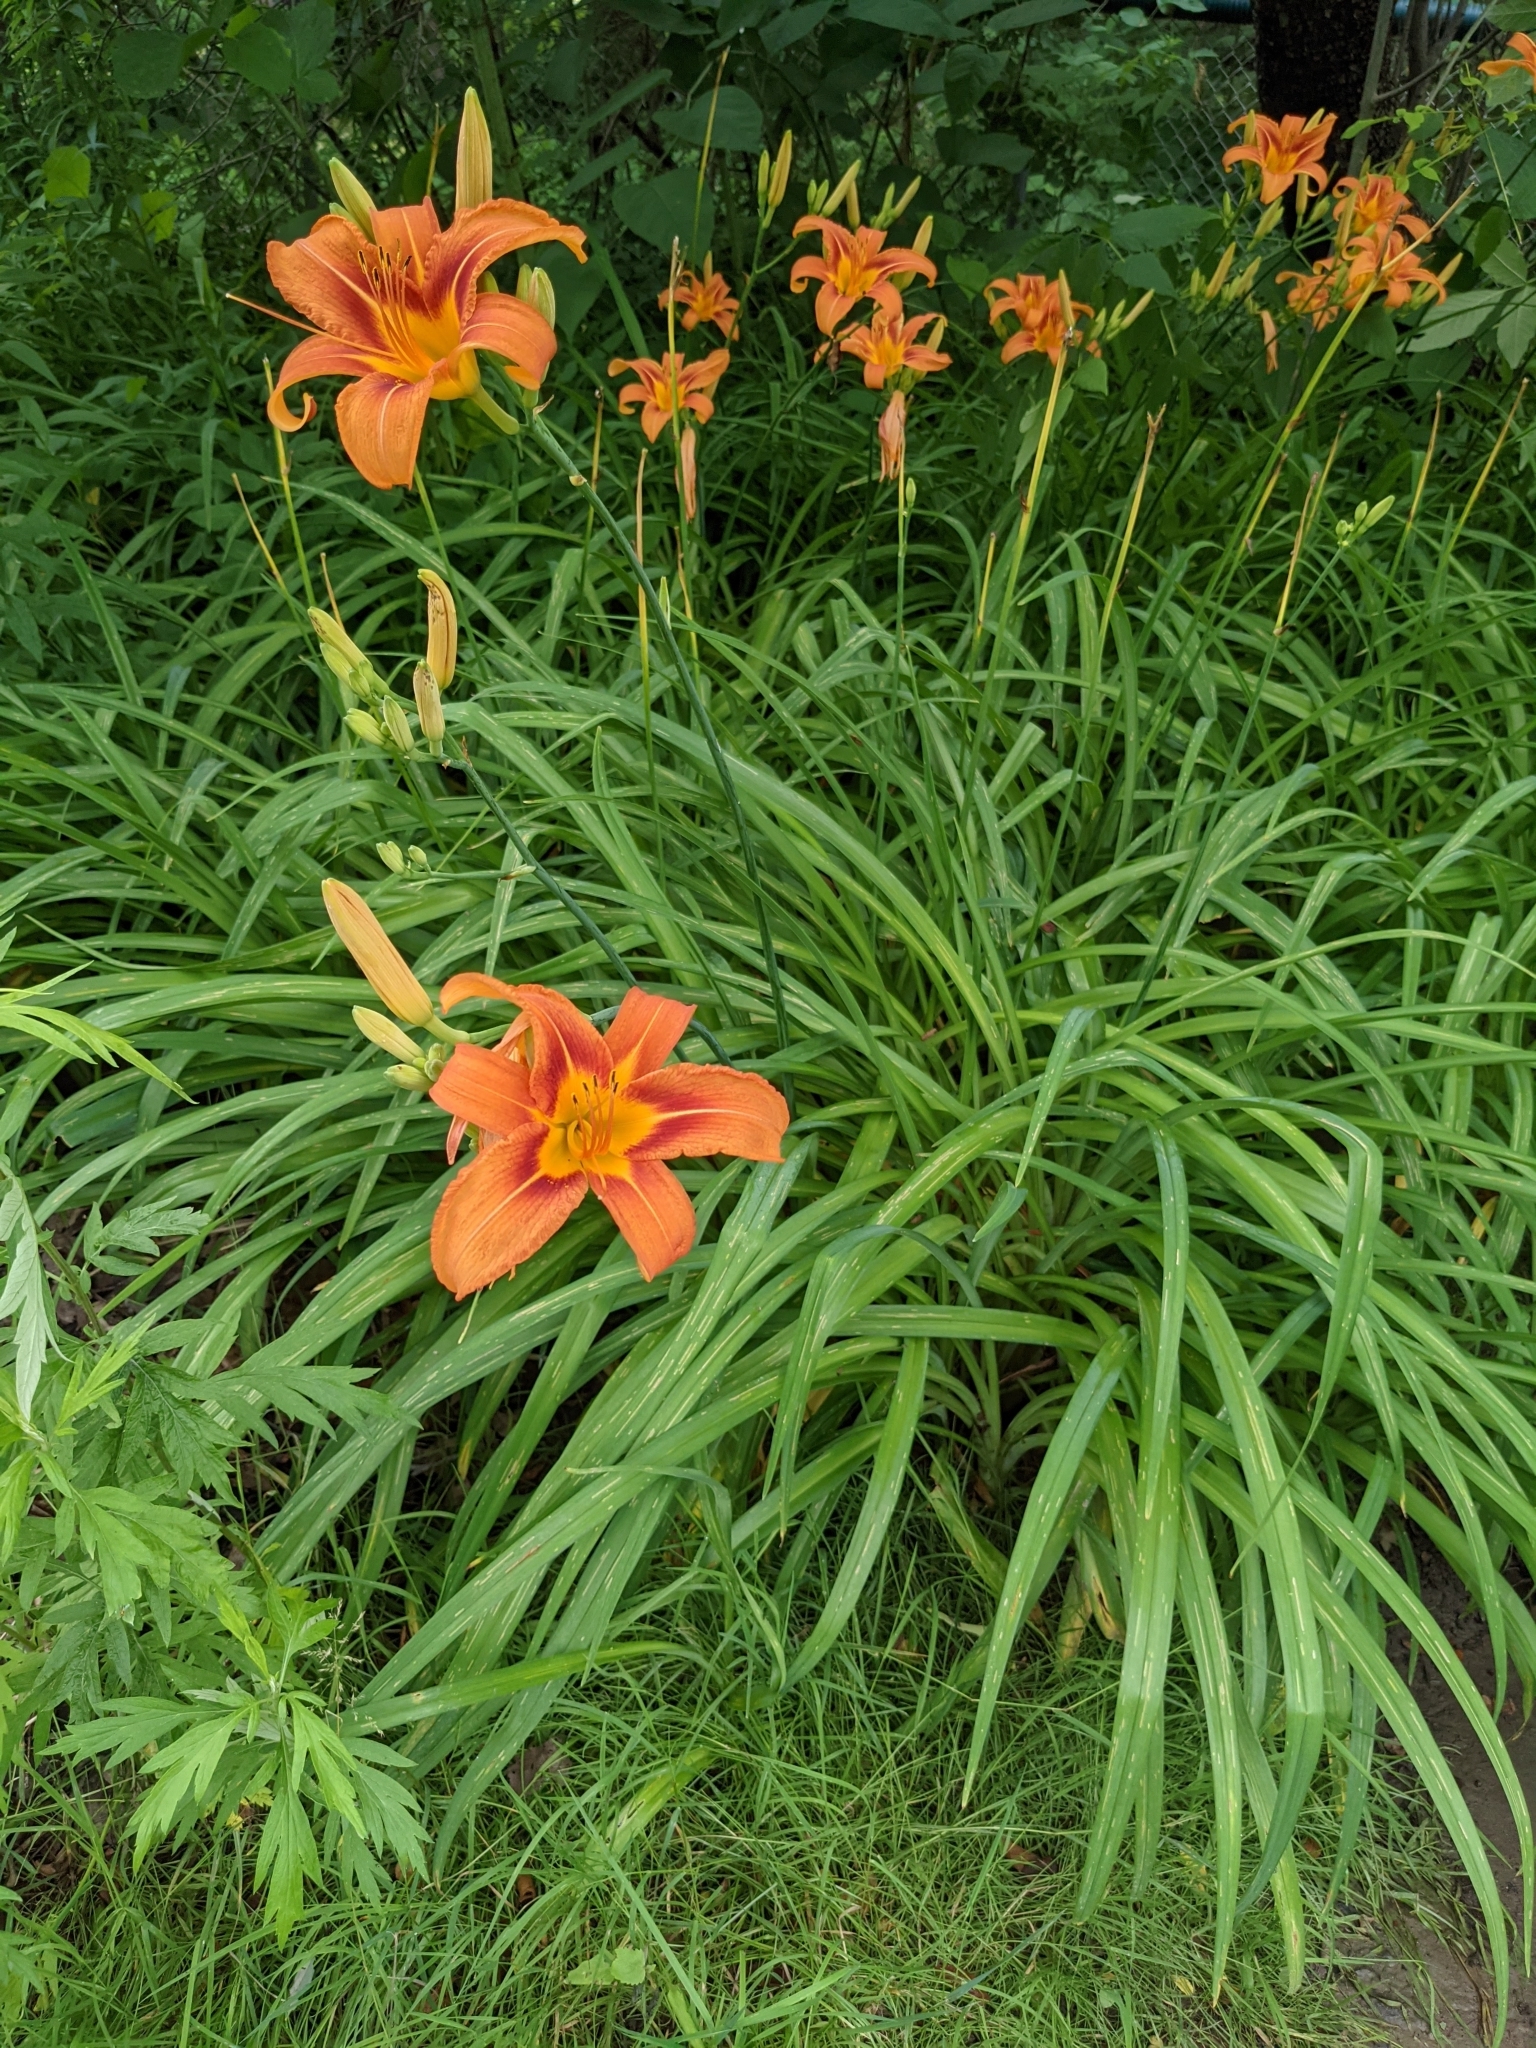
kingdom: Plantae
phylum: Tracheophyta
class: Liliopsida
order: Asparagales
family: Asphodelaceae
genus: Hemerocallis
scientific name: Hemerocallis fulva
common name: Orange day-lily
